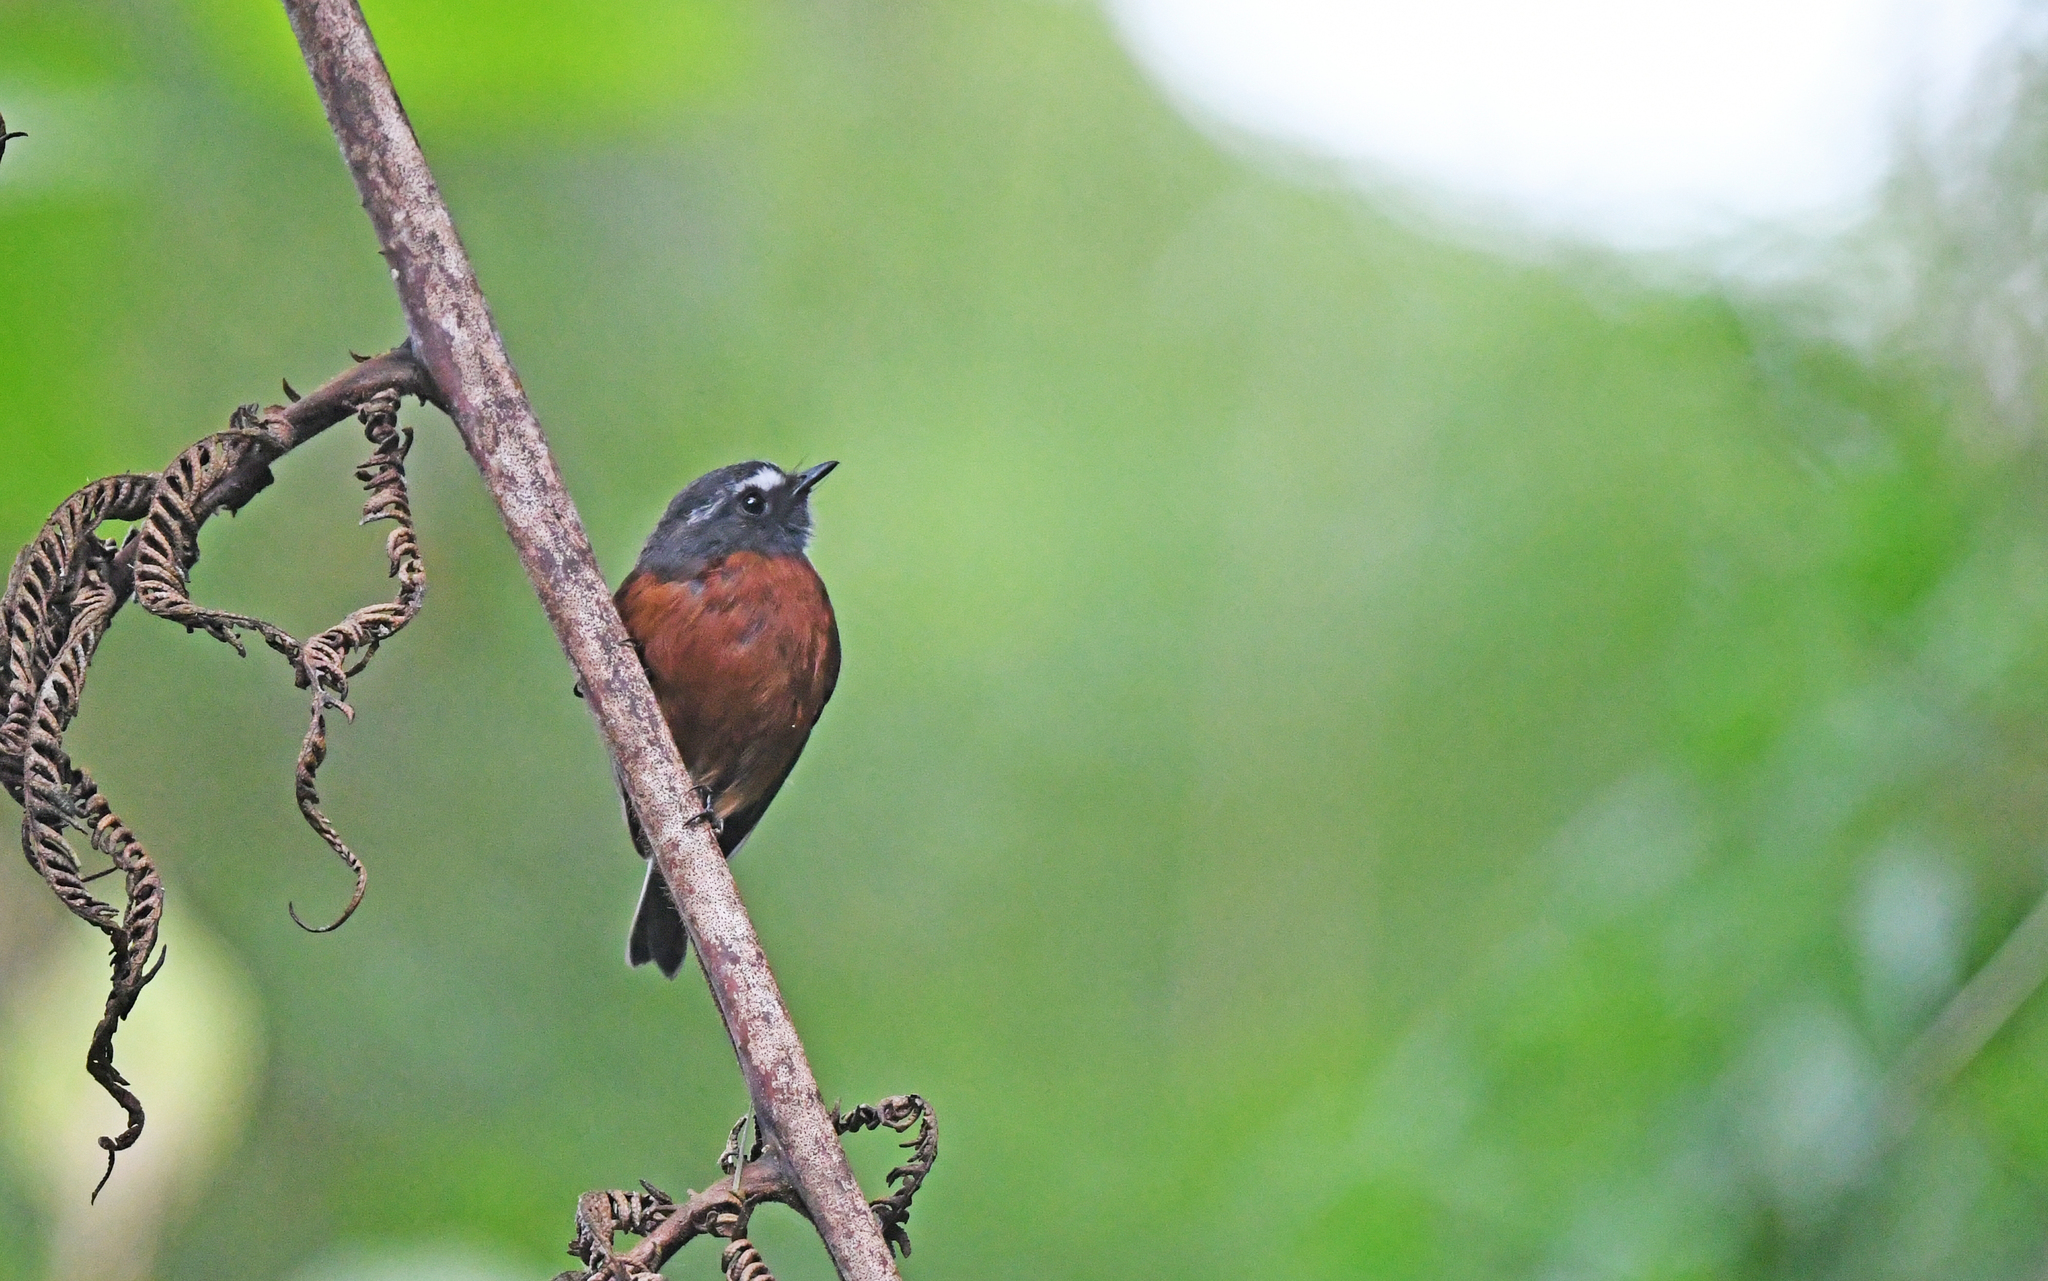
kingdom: Animalia
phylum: Chordata
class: Aves
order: Passeriformes
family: Tyrannidae
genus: Ochthoeca
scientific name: Ochthoeca cinnamomeiventris
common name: Slaty-backed chat-tyrant
